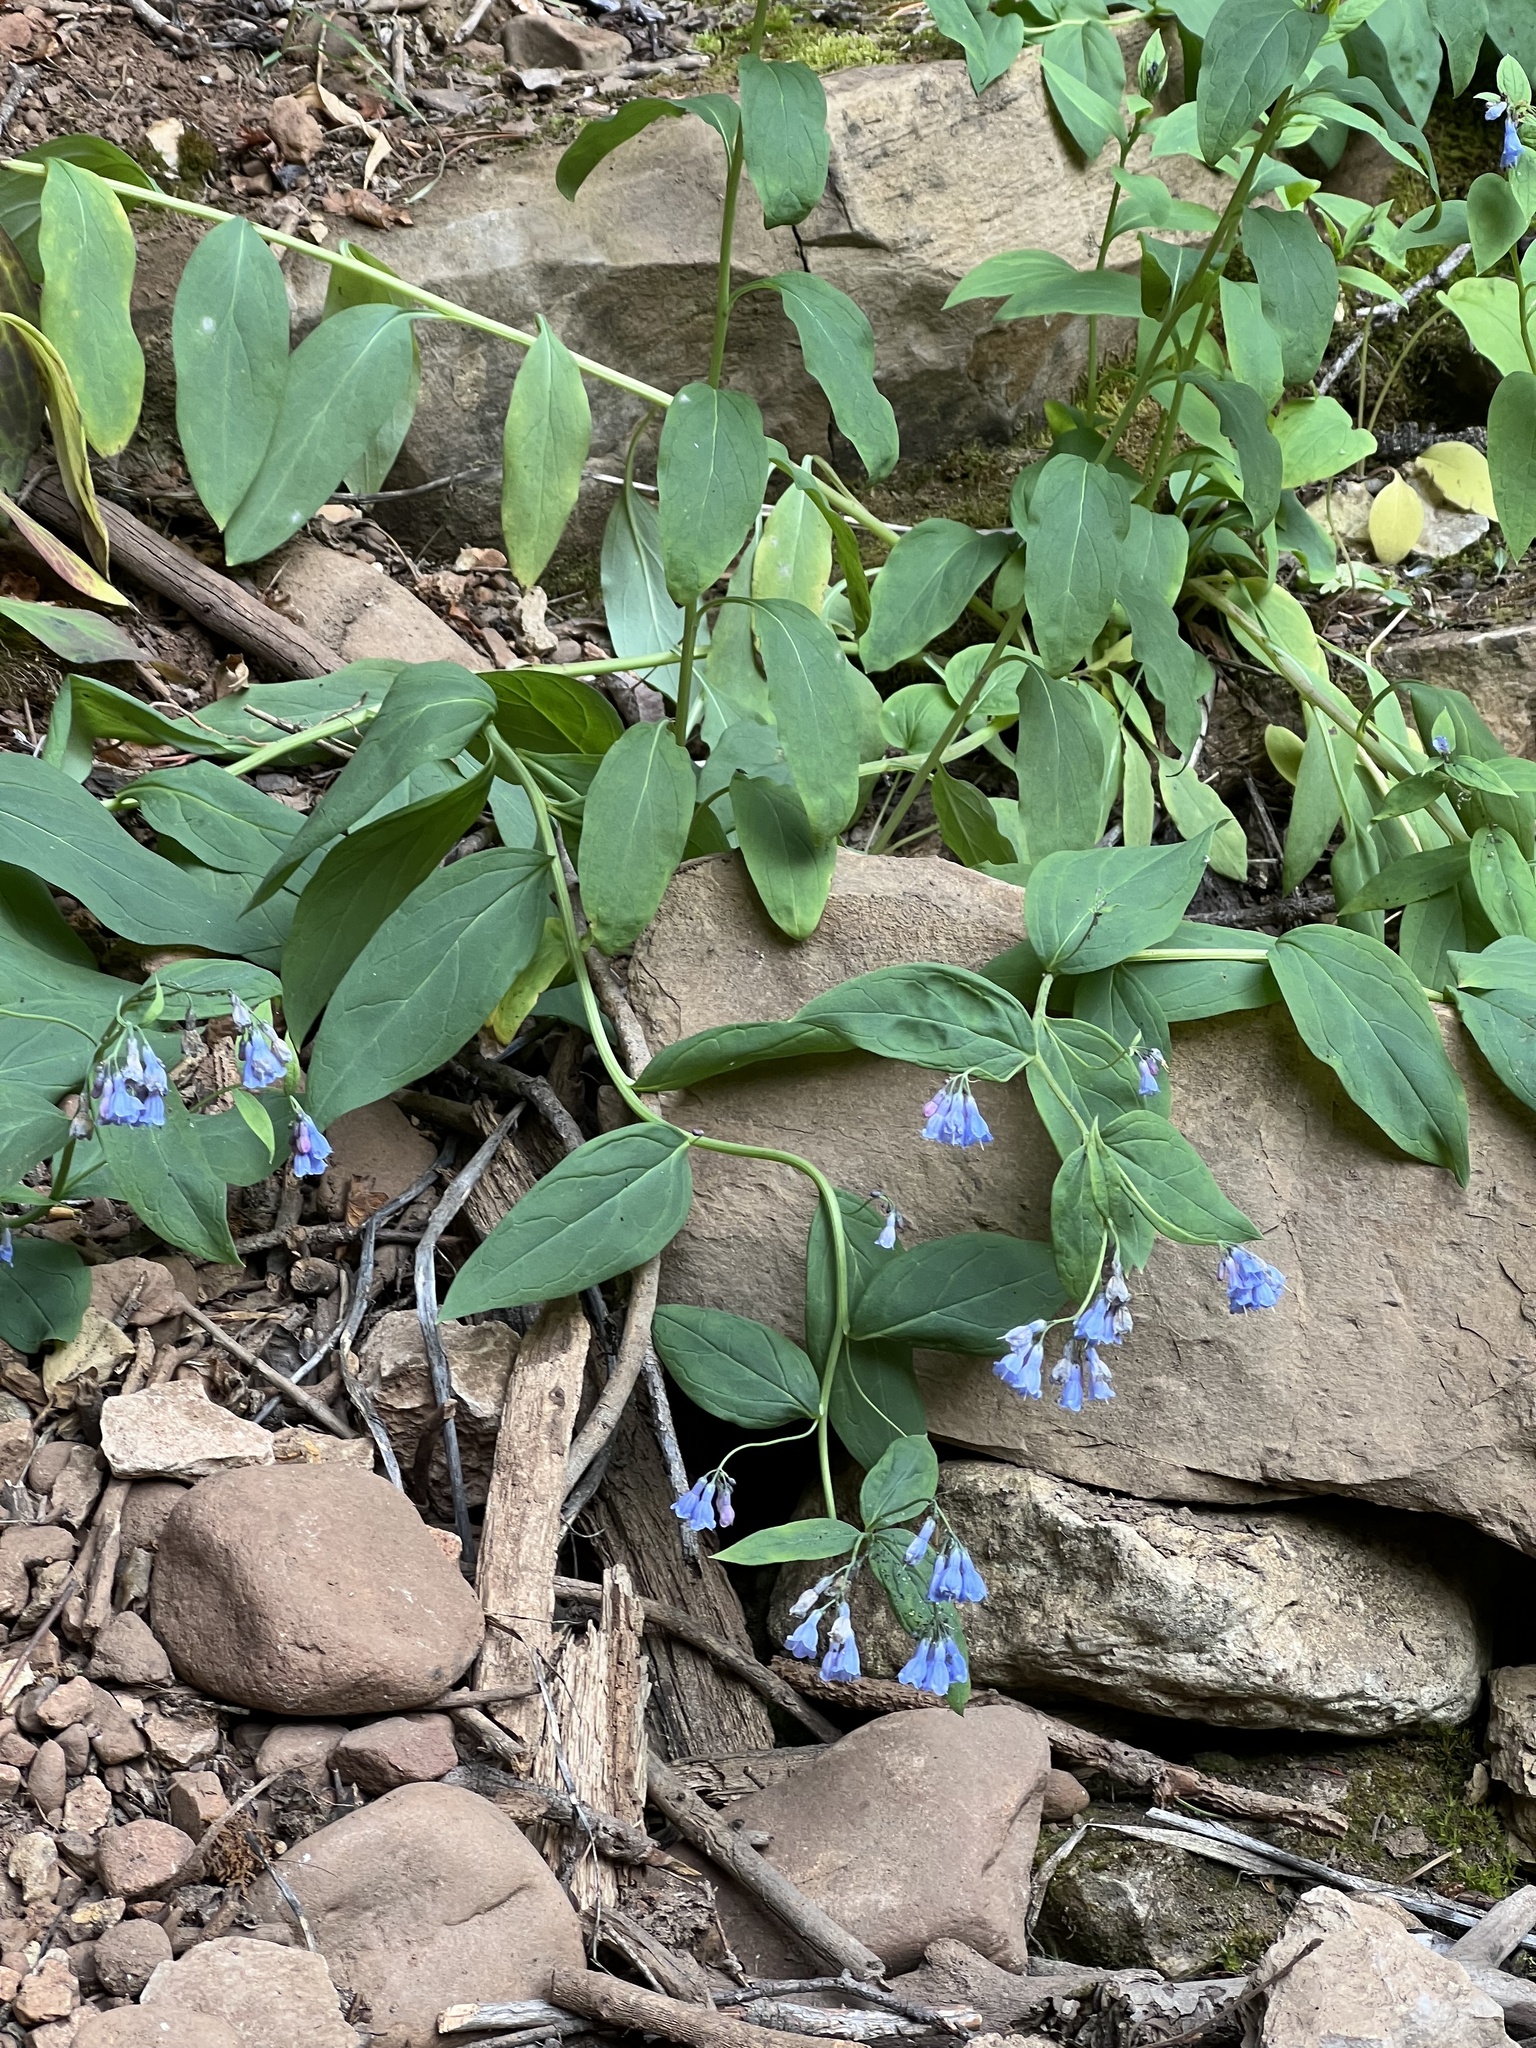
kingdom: Plantae
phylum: Tracheophyta
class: Magnoliopsida
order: Boraginales
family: Boraginaceae
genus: Mertensia
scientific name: Mertensia ciliata
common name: Tall chiming-bells
